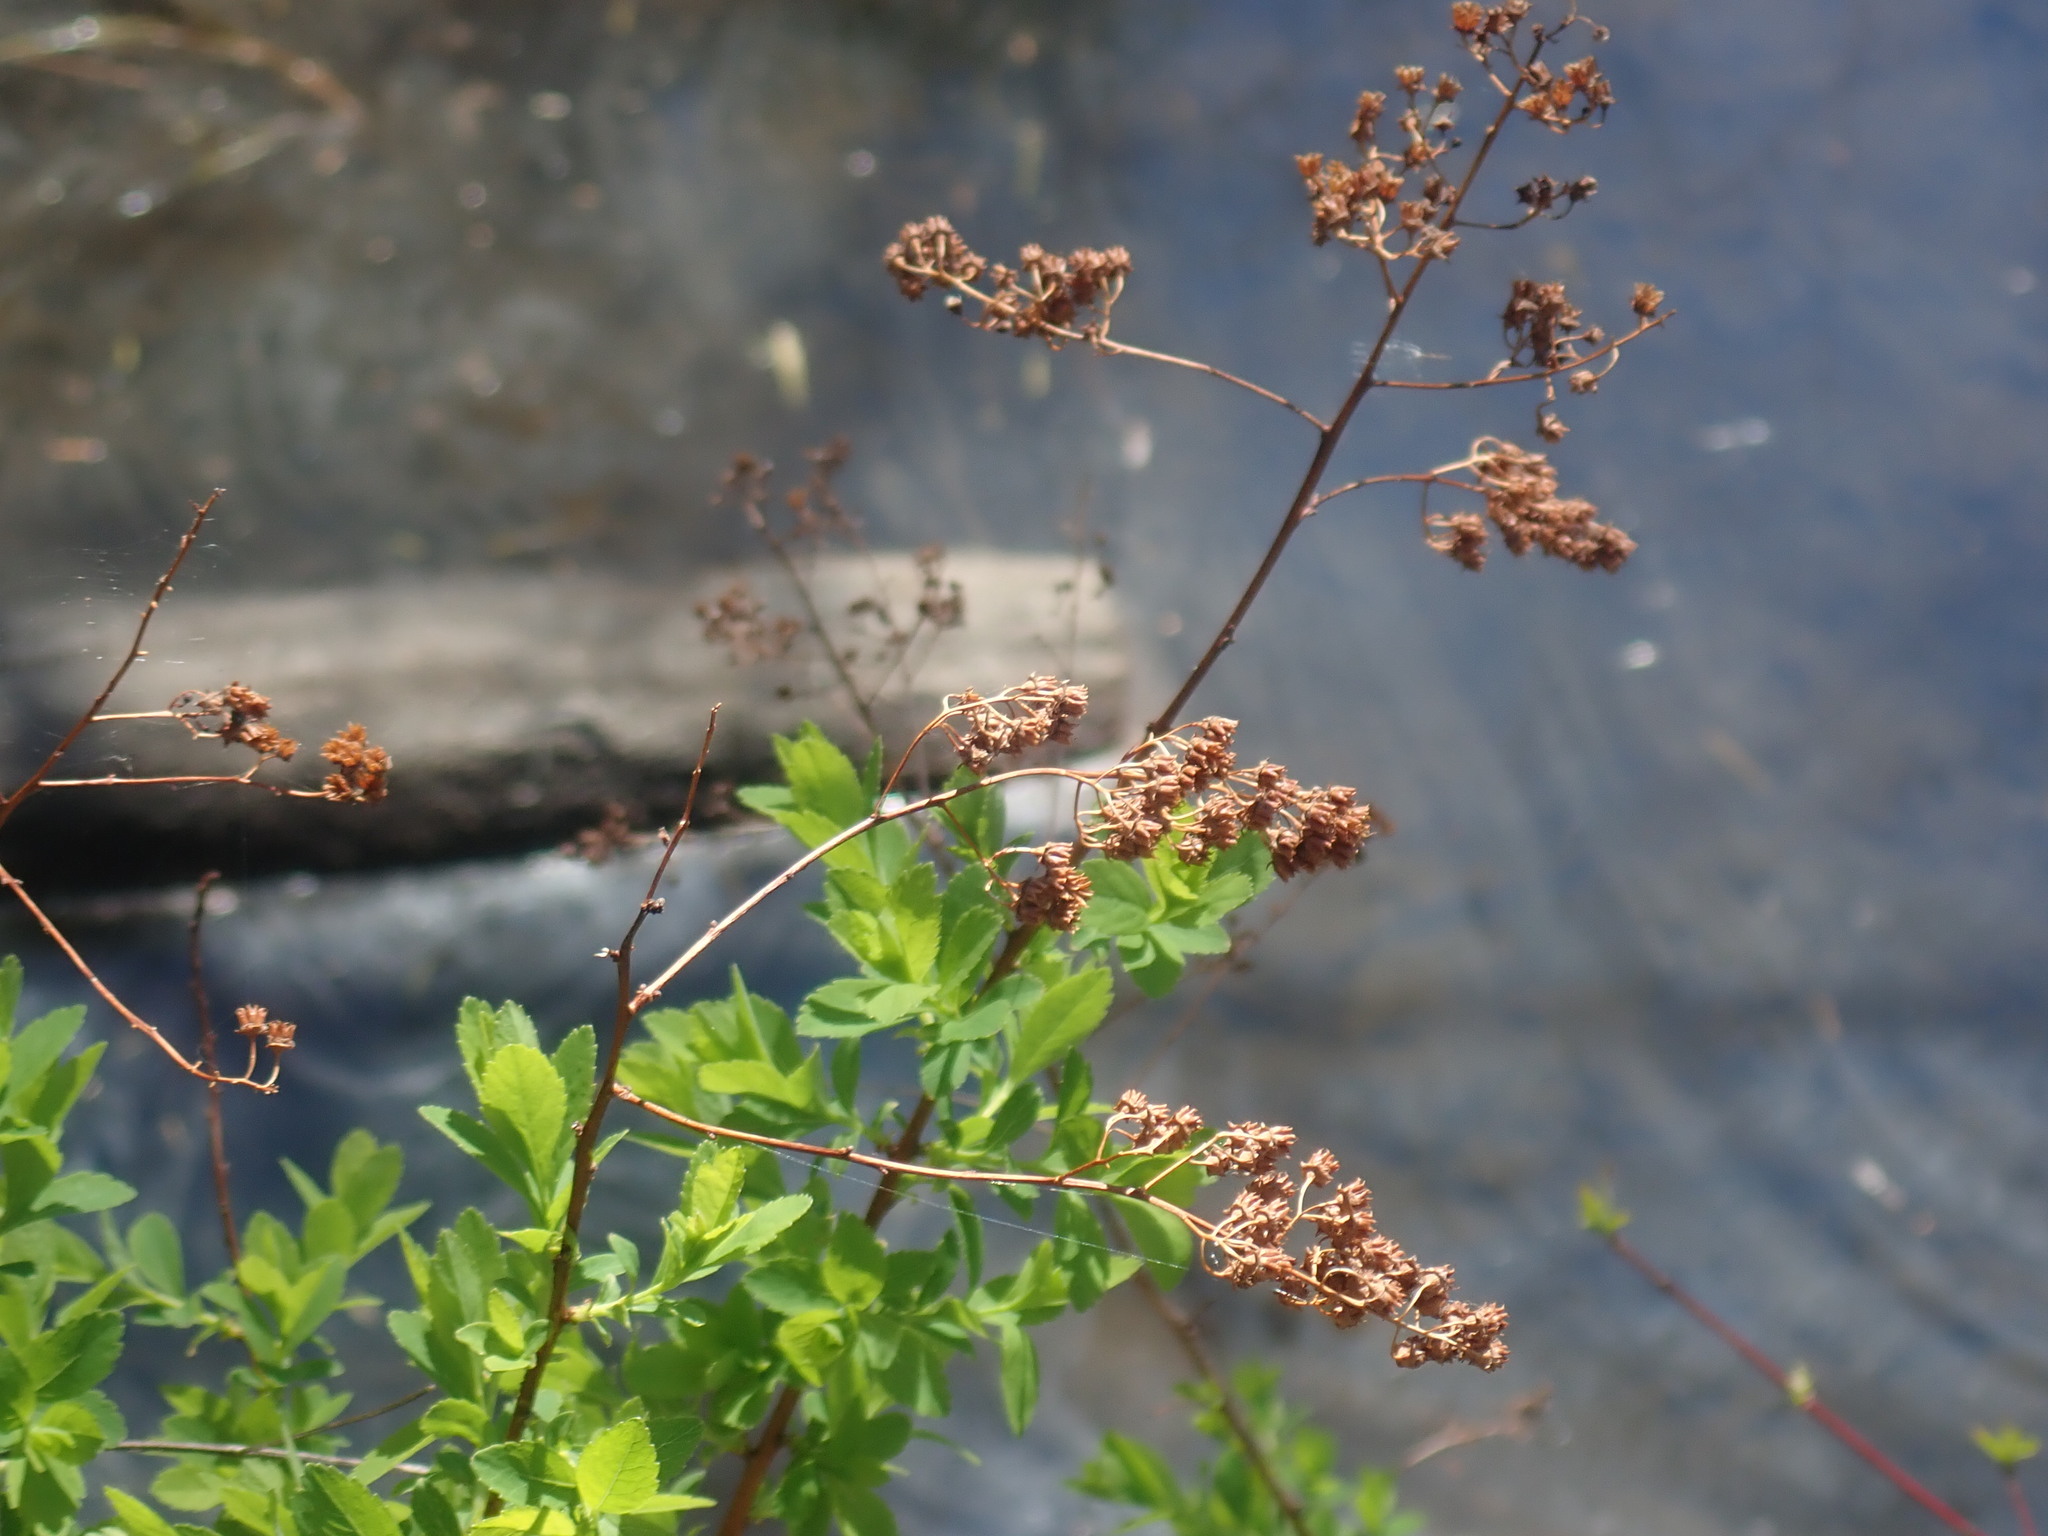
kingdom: Plantae
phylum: Tracheophyta
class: Magnoliopsida
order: Rosales
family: Rosaceae
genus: Spiraea
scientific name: Spiraea alba
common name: Pale bridewort
